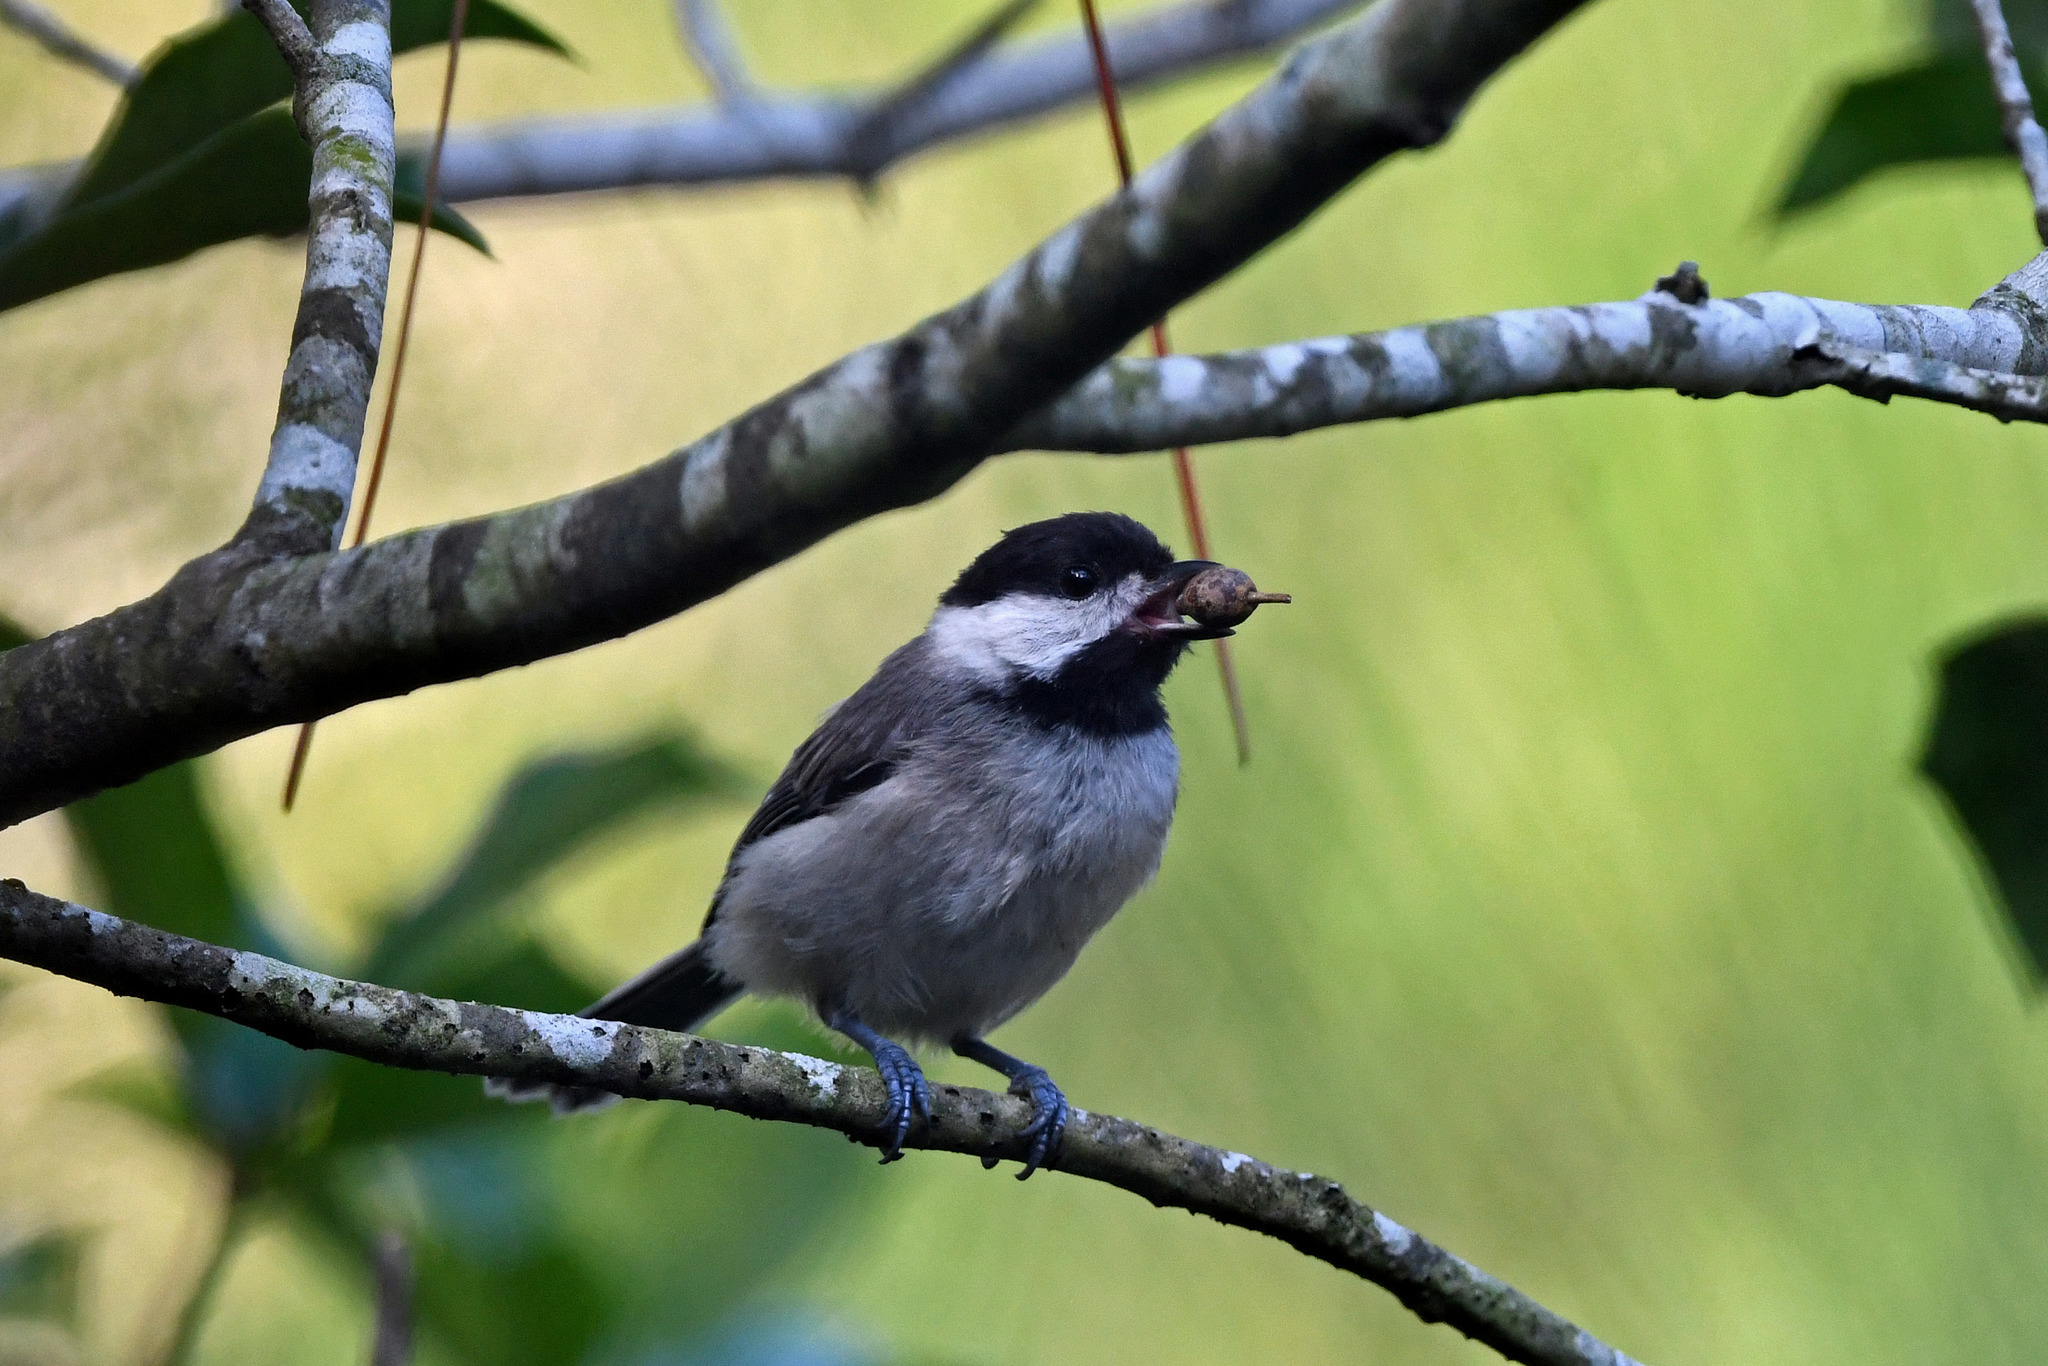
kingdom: Animalia
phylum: Chordata
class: Aves
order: Passeriformes
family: Paridae
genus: Poecile
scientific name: Poecile carolinensis
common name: Carolina chickadee
